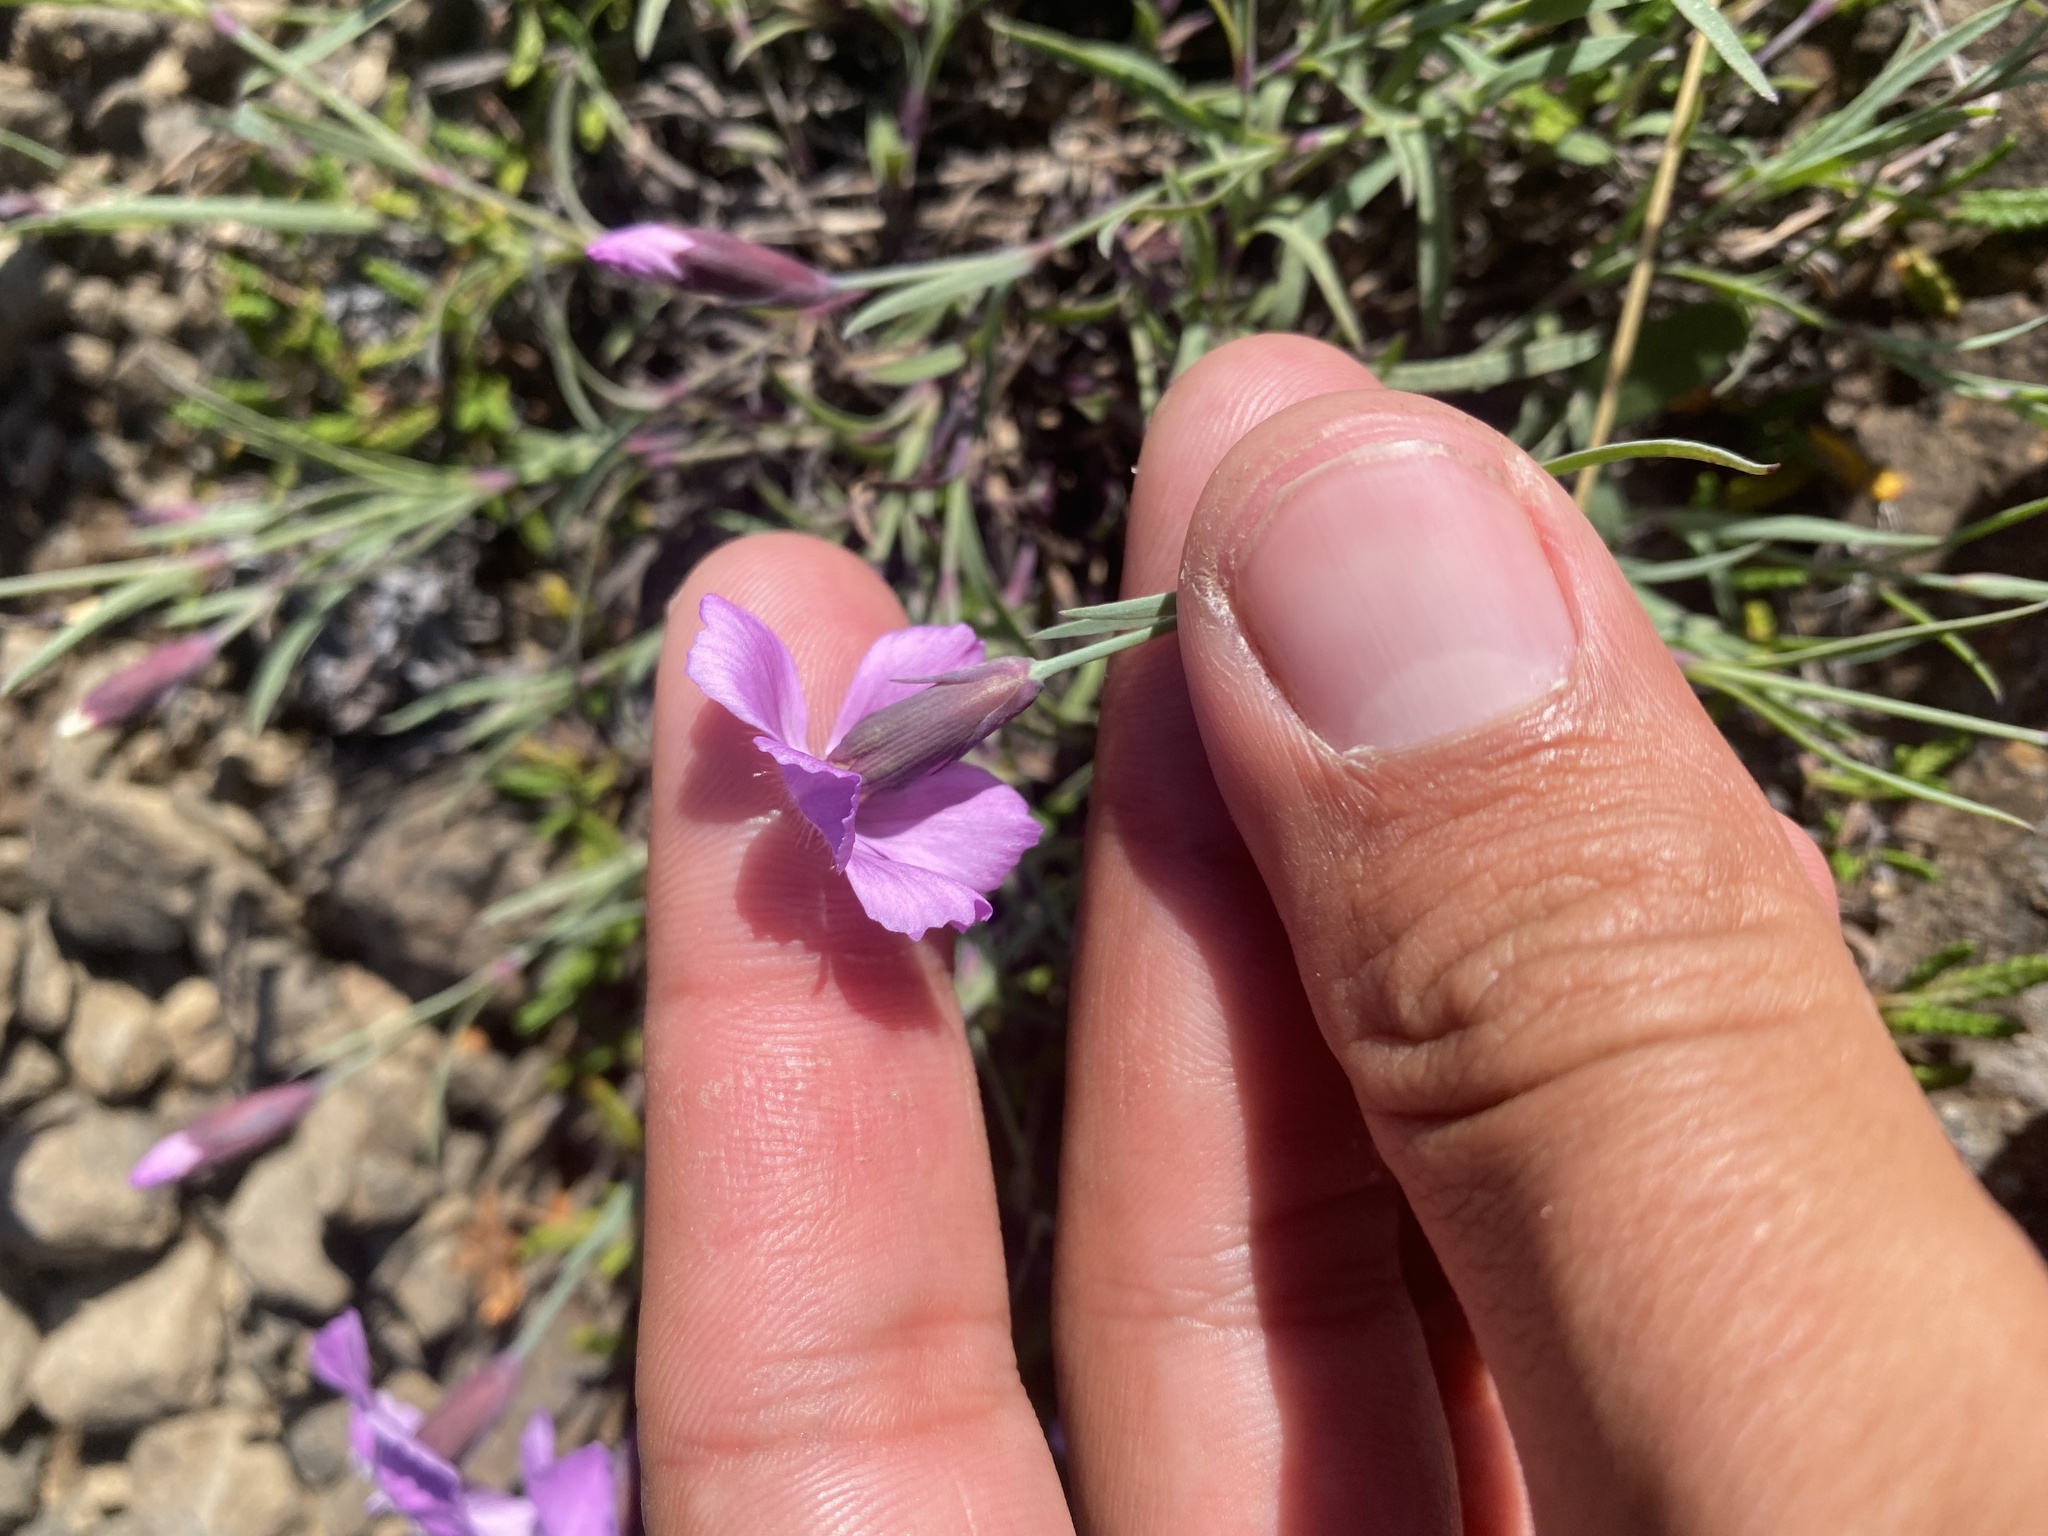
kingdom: Plantae
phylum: Tracheophyta
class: Magnoliopsida
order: Caryophyllales
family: Caryophyllaceae
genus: Dianthus
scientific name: Dianthus repens
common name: Northern pink
